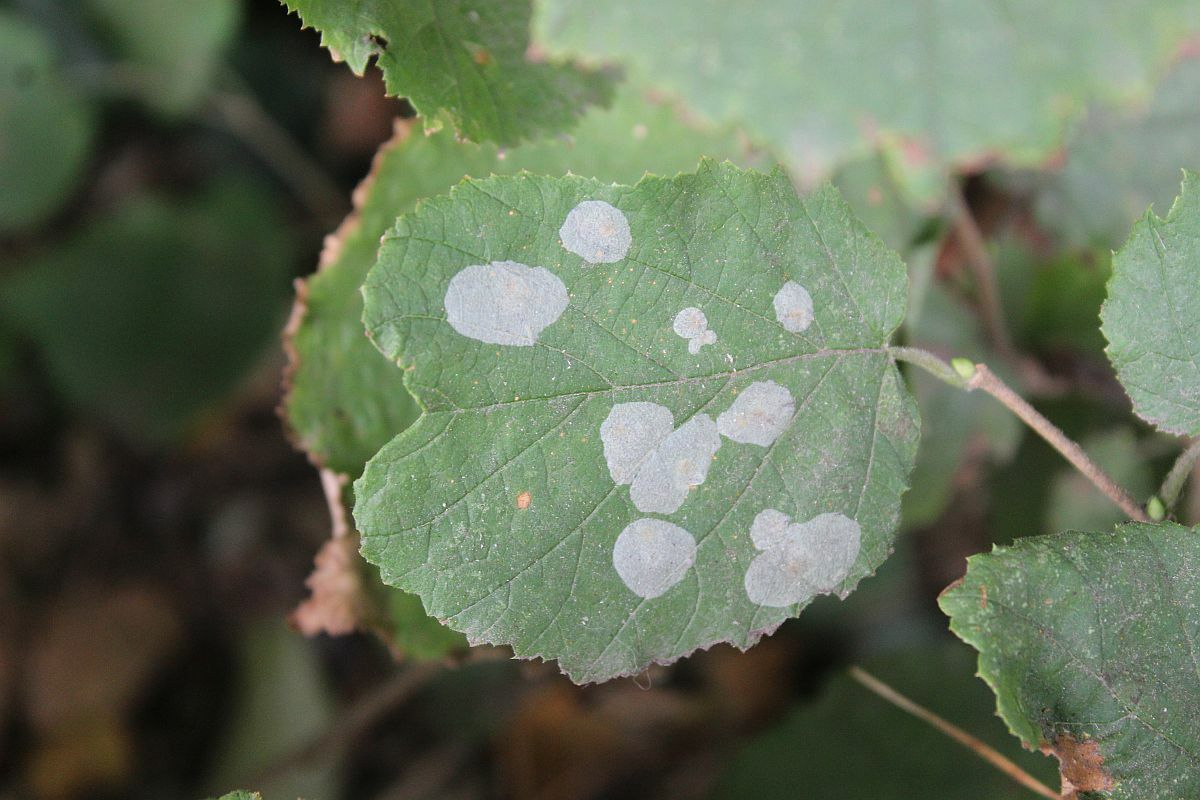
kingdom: Animalia
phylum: Arthropoda
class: Insecta
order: Lepidoptera
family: Gracillariidae
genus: Phyllonorycter
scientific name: Phyllonorycter coryli
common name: Nut-leaf blister moth
